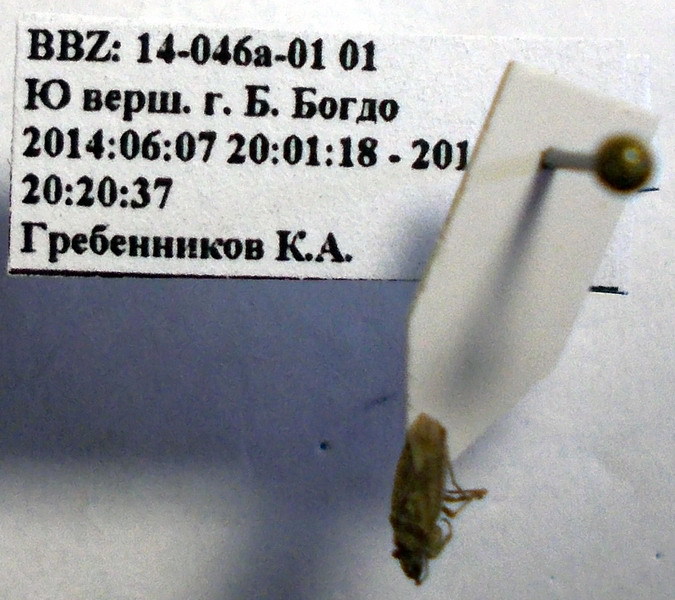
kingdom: Animalia
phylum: Arthropoda
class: Insecta
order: Hemiptera
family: Rhyparochromidae
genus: Diomphalus
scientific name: Diomphalus hispidulus
